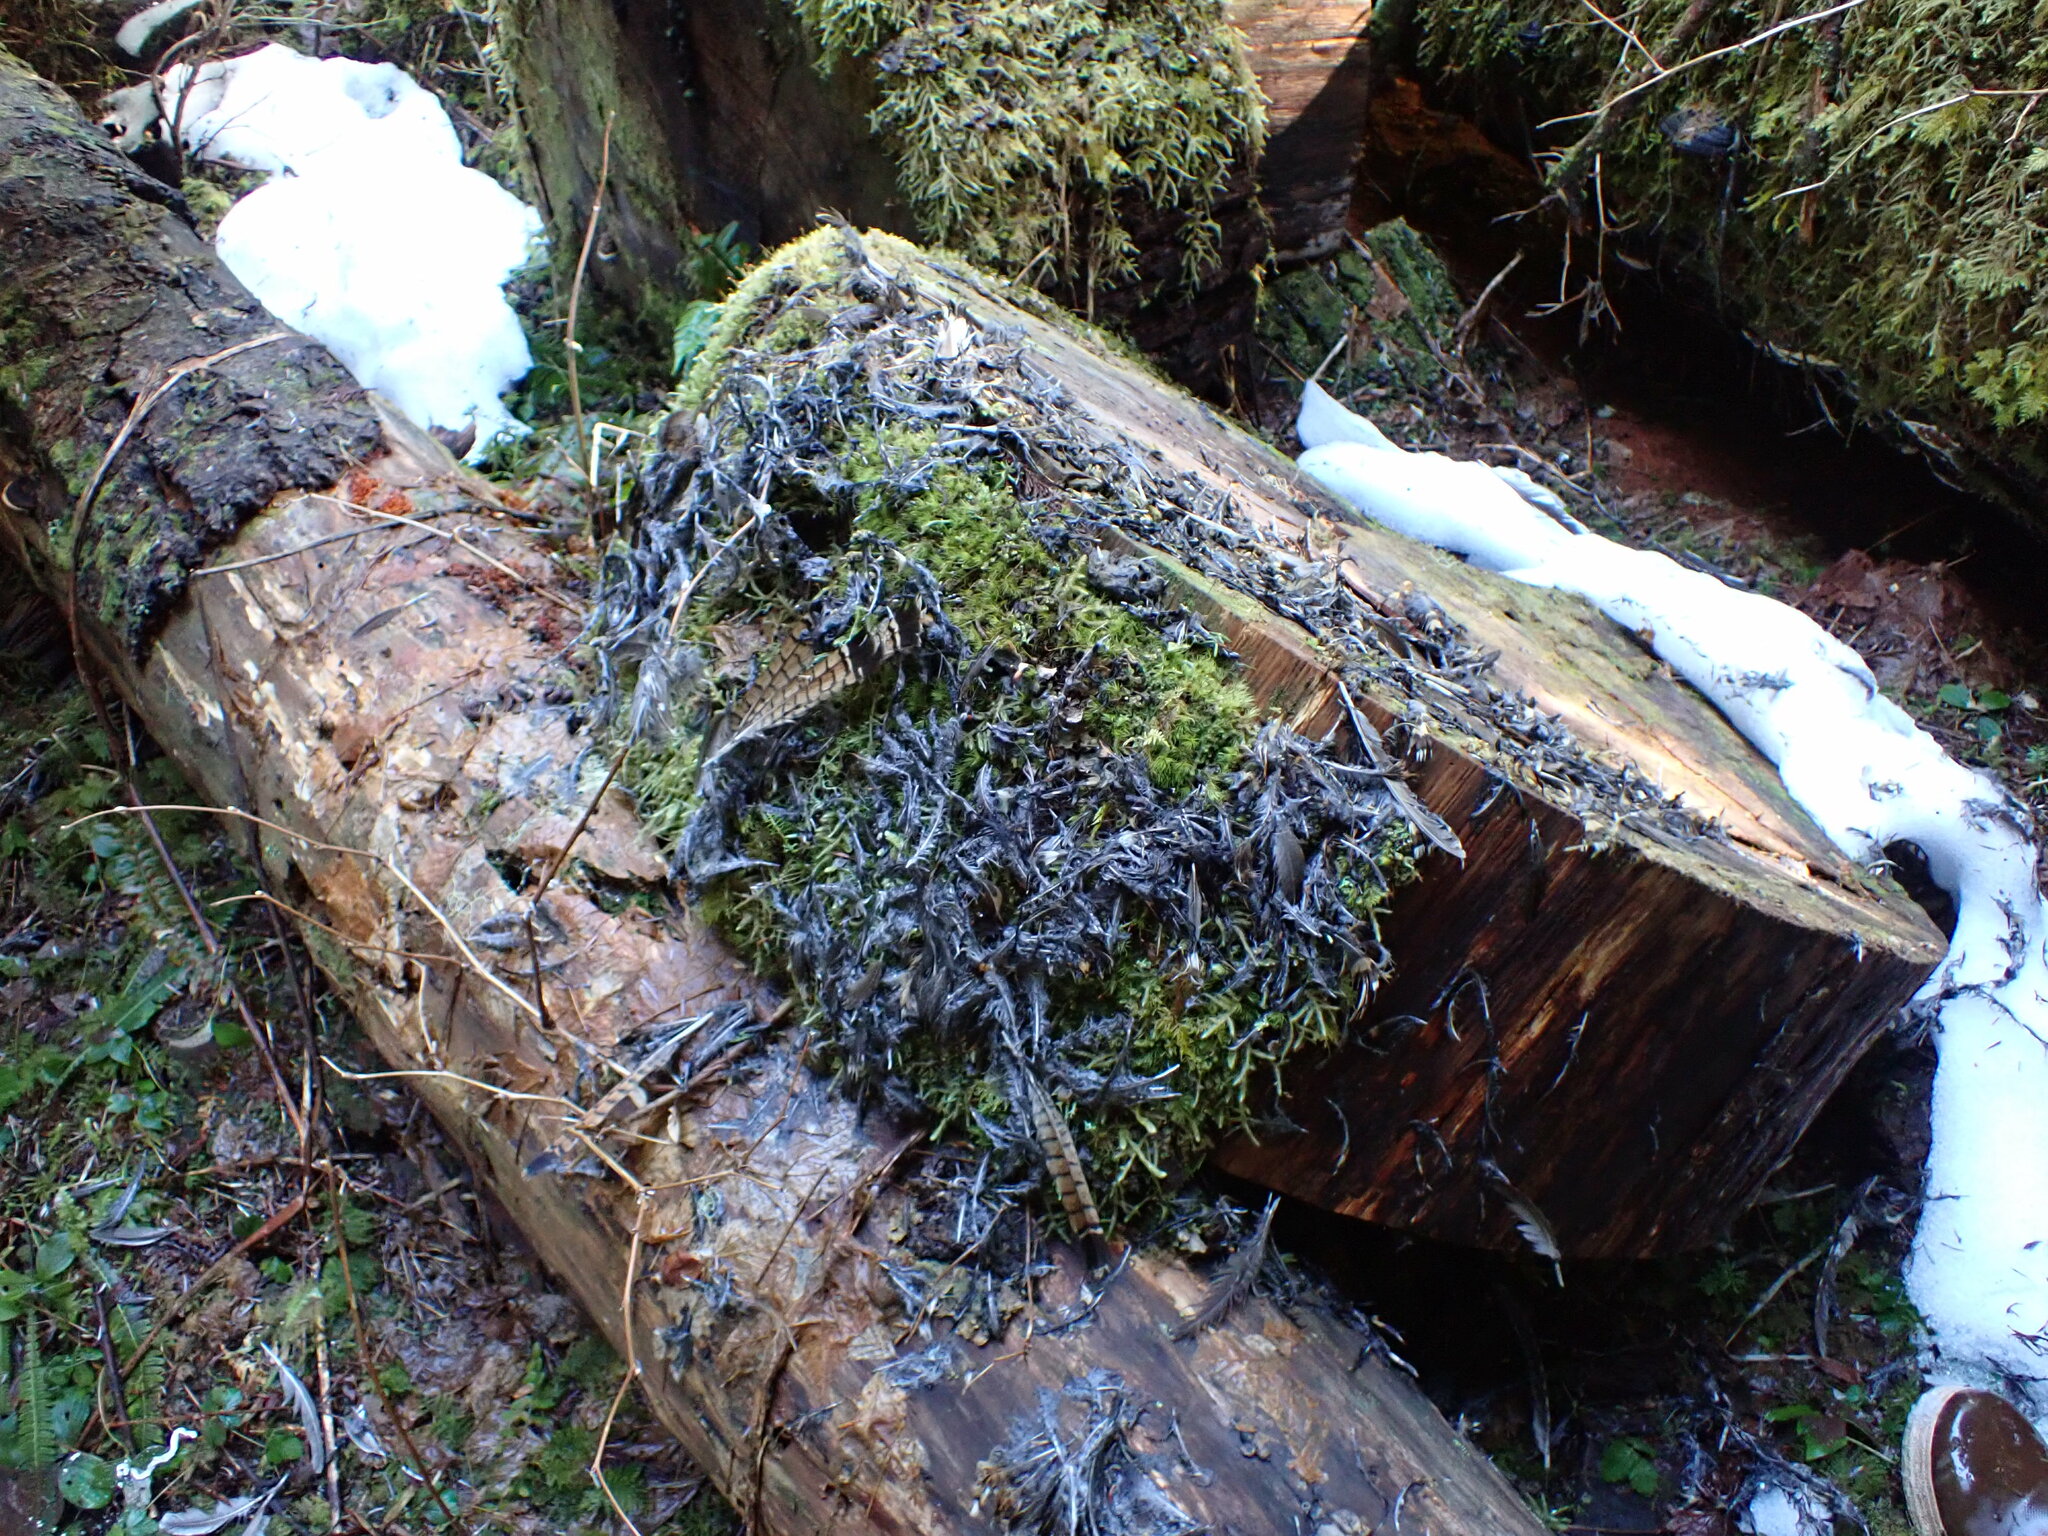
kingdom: Animalia
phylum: Chordata
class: Aves
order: Galliformes
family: Phasianidae
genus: Bonasa
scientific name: Bonasa umbellus
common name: Ruffed grouse
